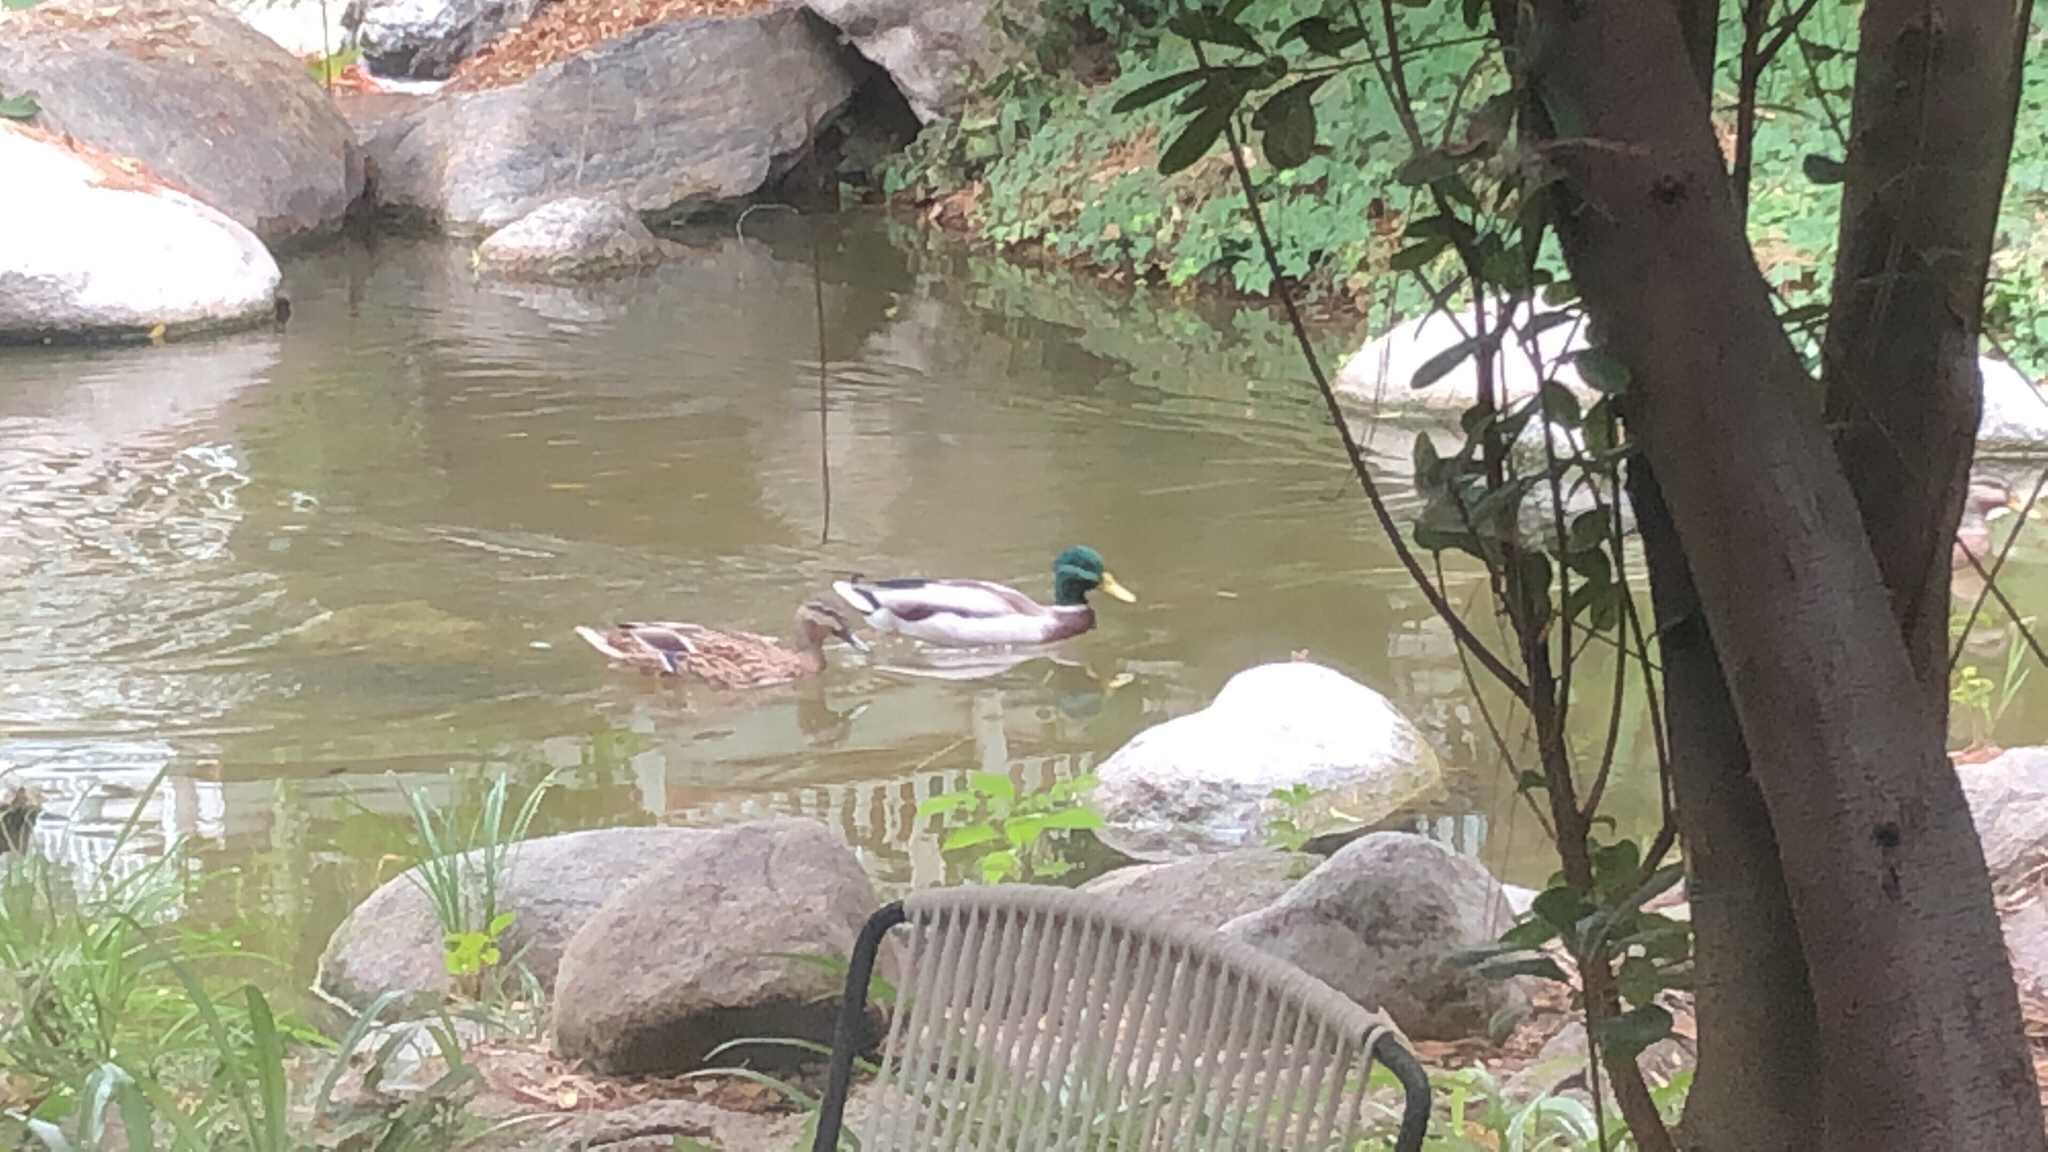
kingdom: Animalia
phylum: Chordata
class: Aves
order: Anseriformes
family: Anatidae
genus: Anas
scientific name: Anas platyrhynchos
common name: Mallard
